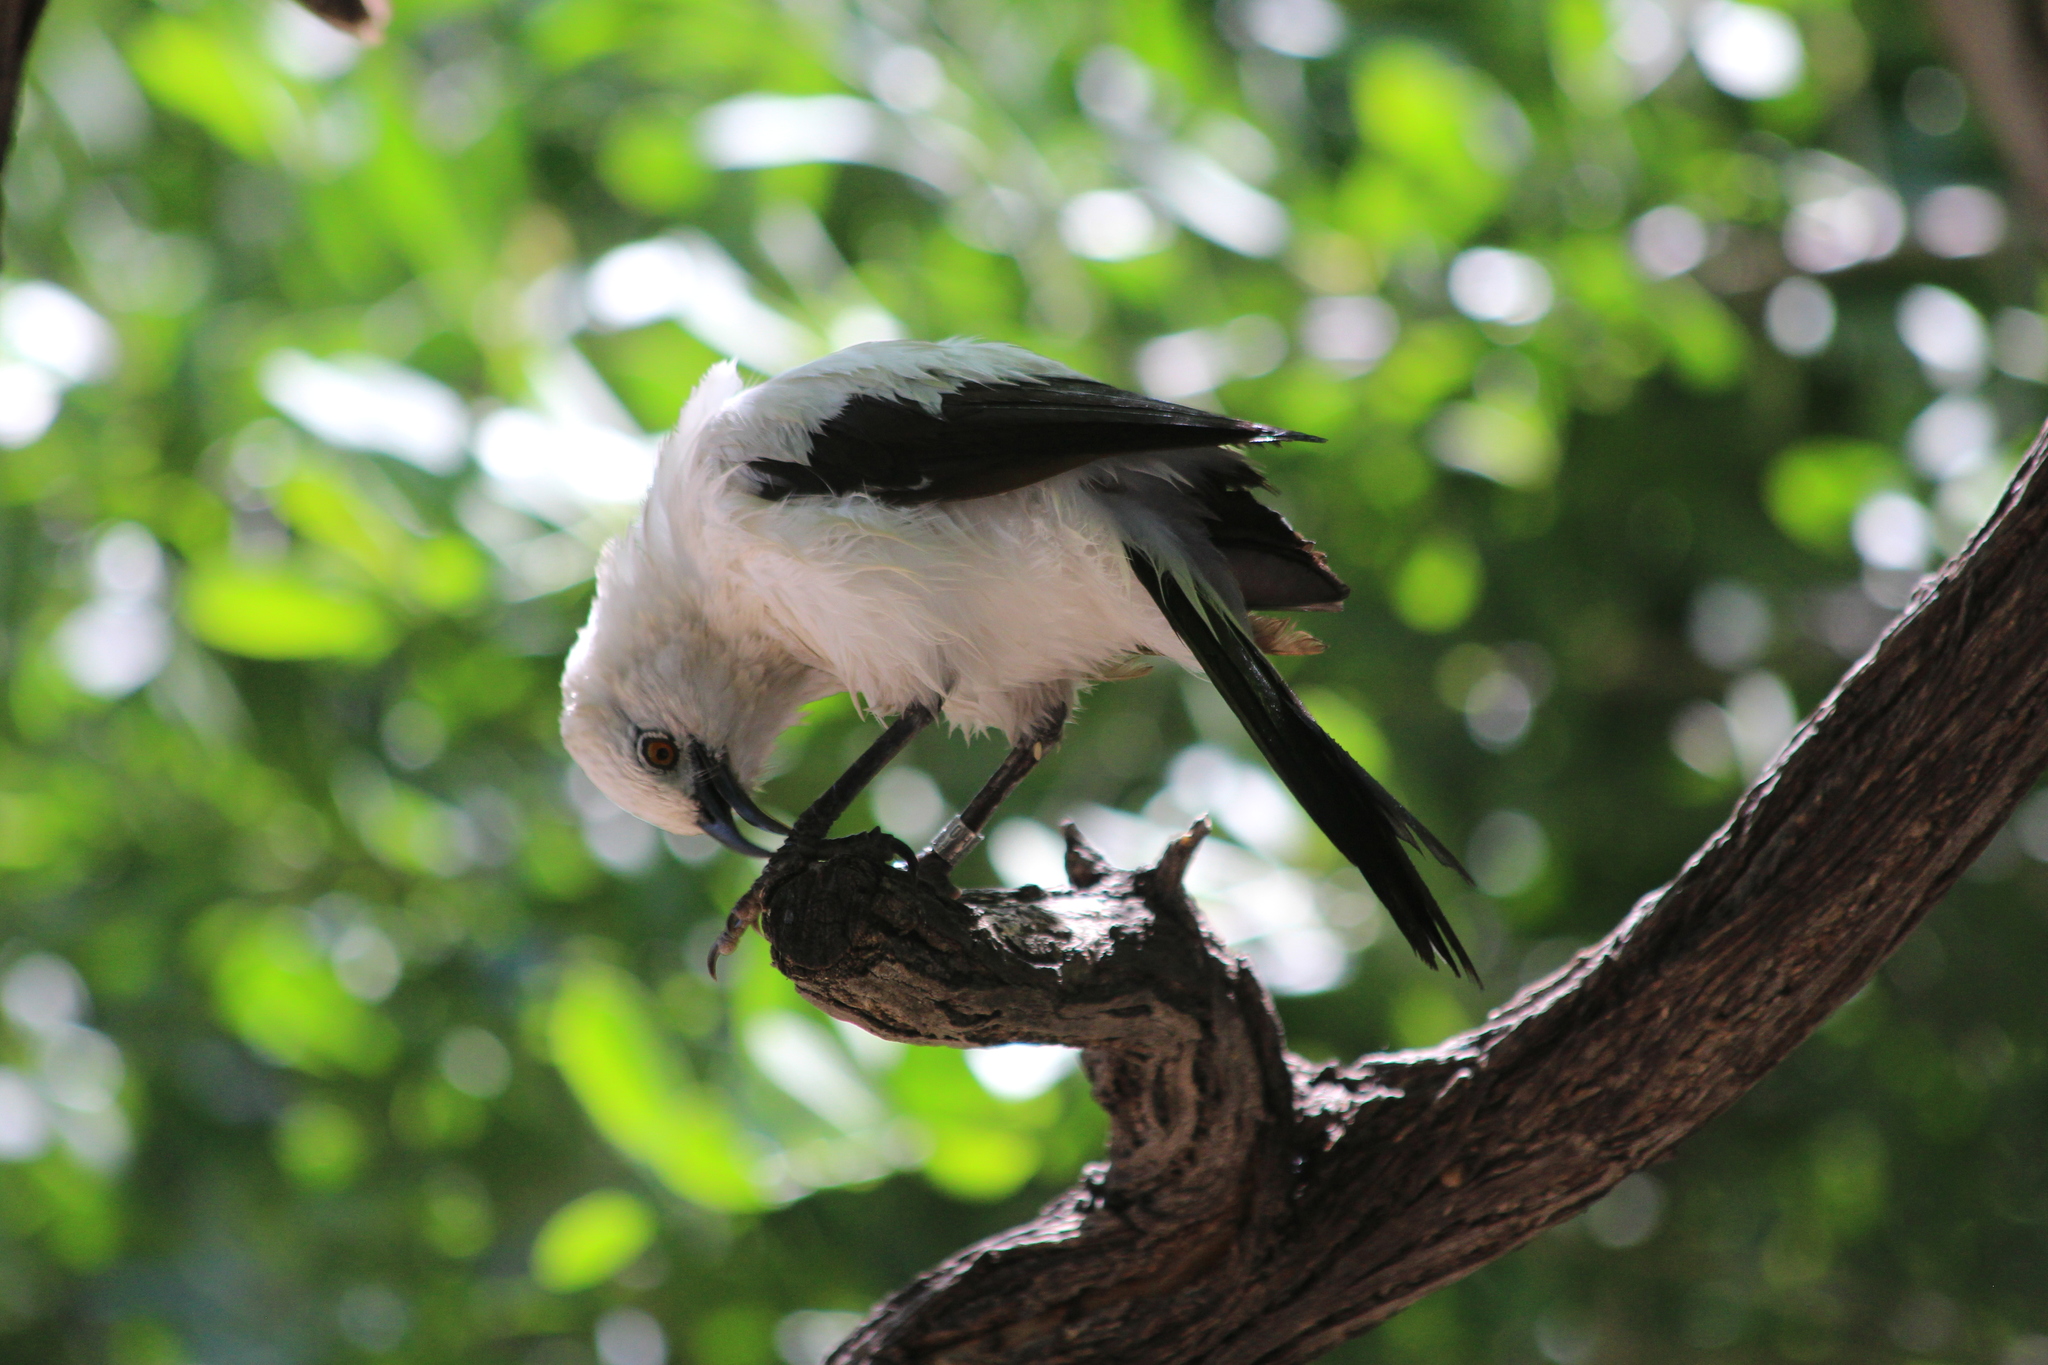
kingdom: Animalia
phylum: Chordata
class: Aves
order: Passeriformes
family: Leiothrichidae
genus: Turdoides
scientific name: Turdoides bicolor
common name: Southern pied babbler
